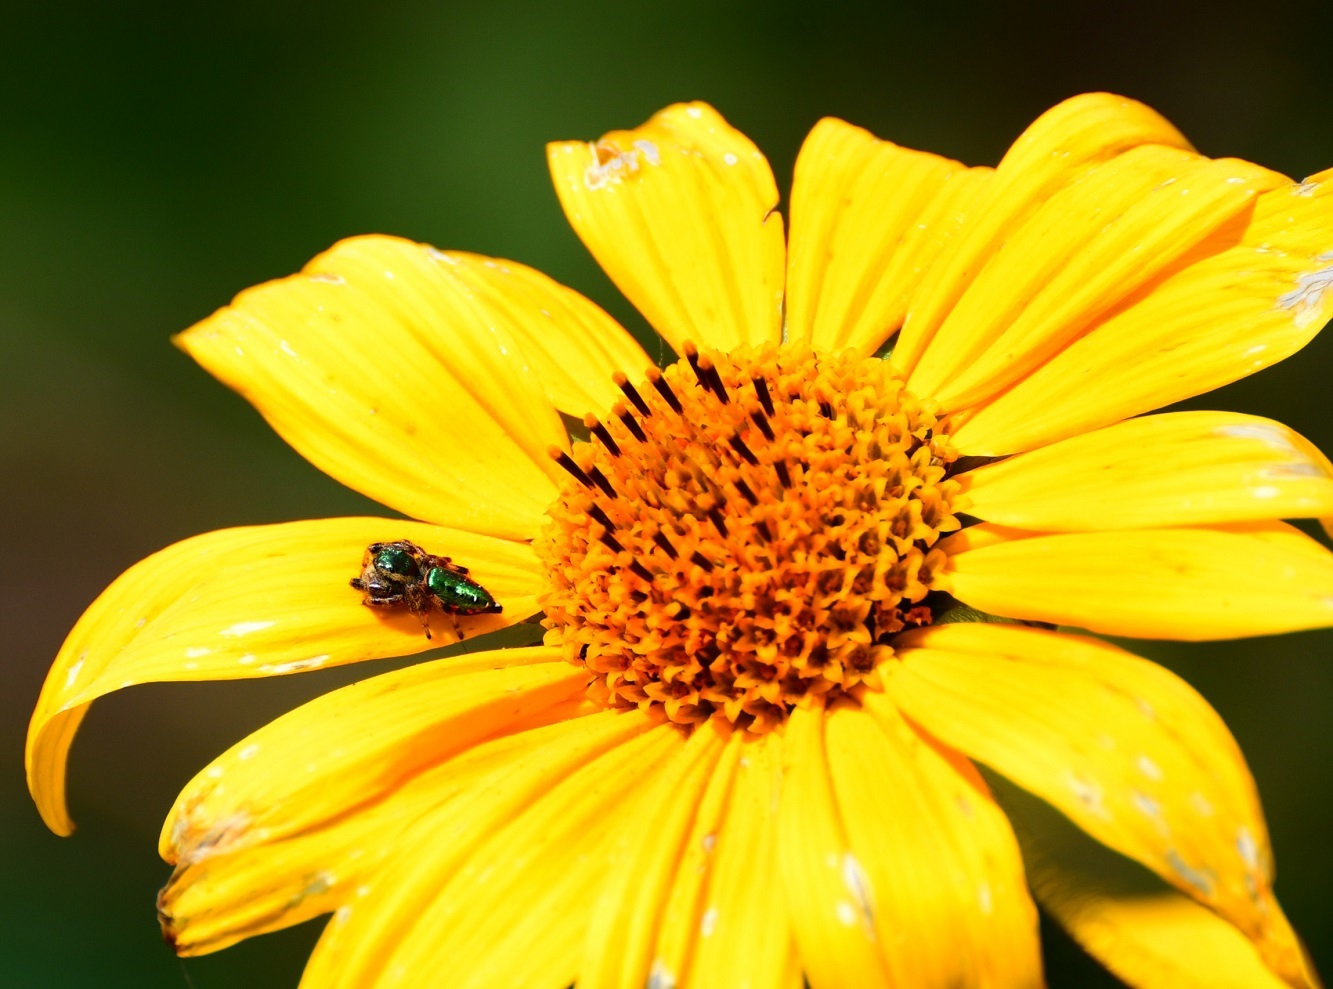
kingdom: Animalia
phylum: Arthropoda
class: Arachnida
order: Araneae
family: Salticidae
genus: Paraphidippus
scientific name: Paraphidippus aurantius
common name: Jumping spiders
